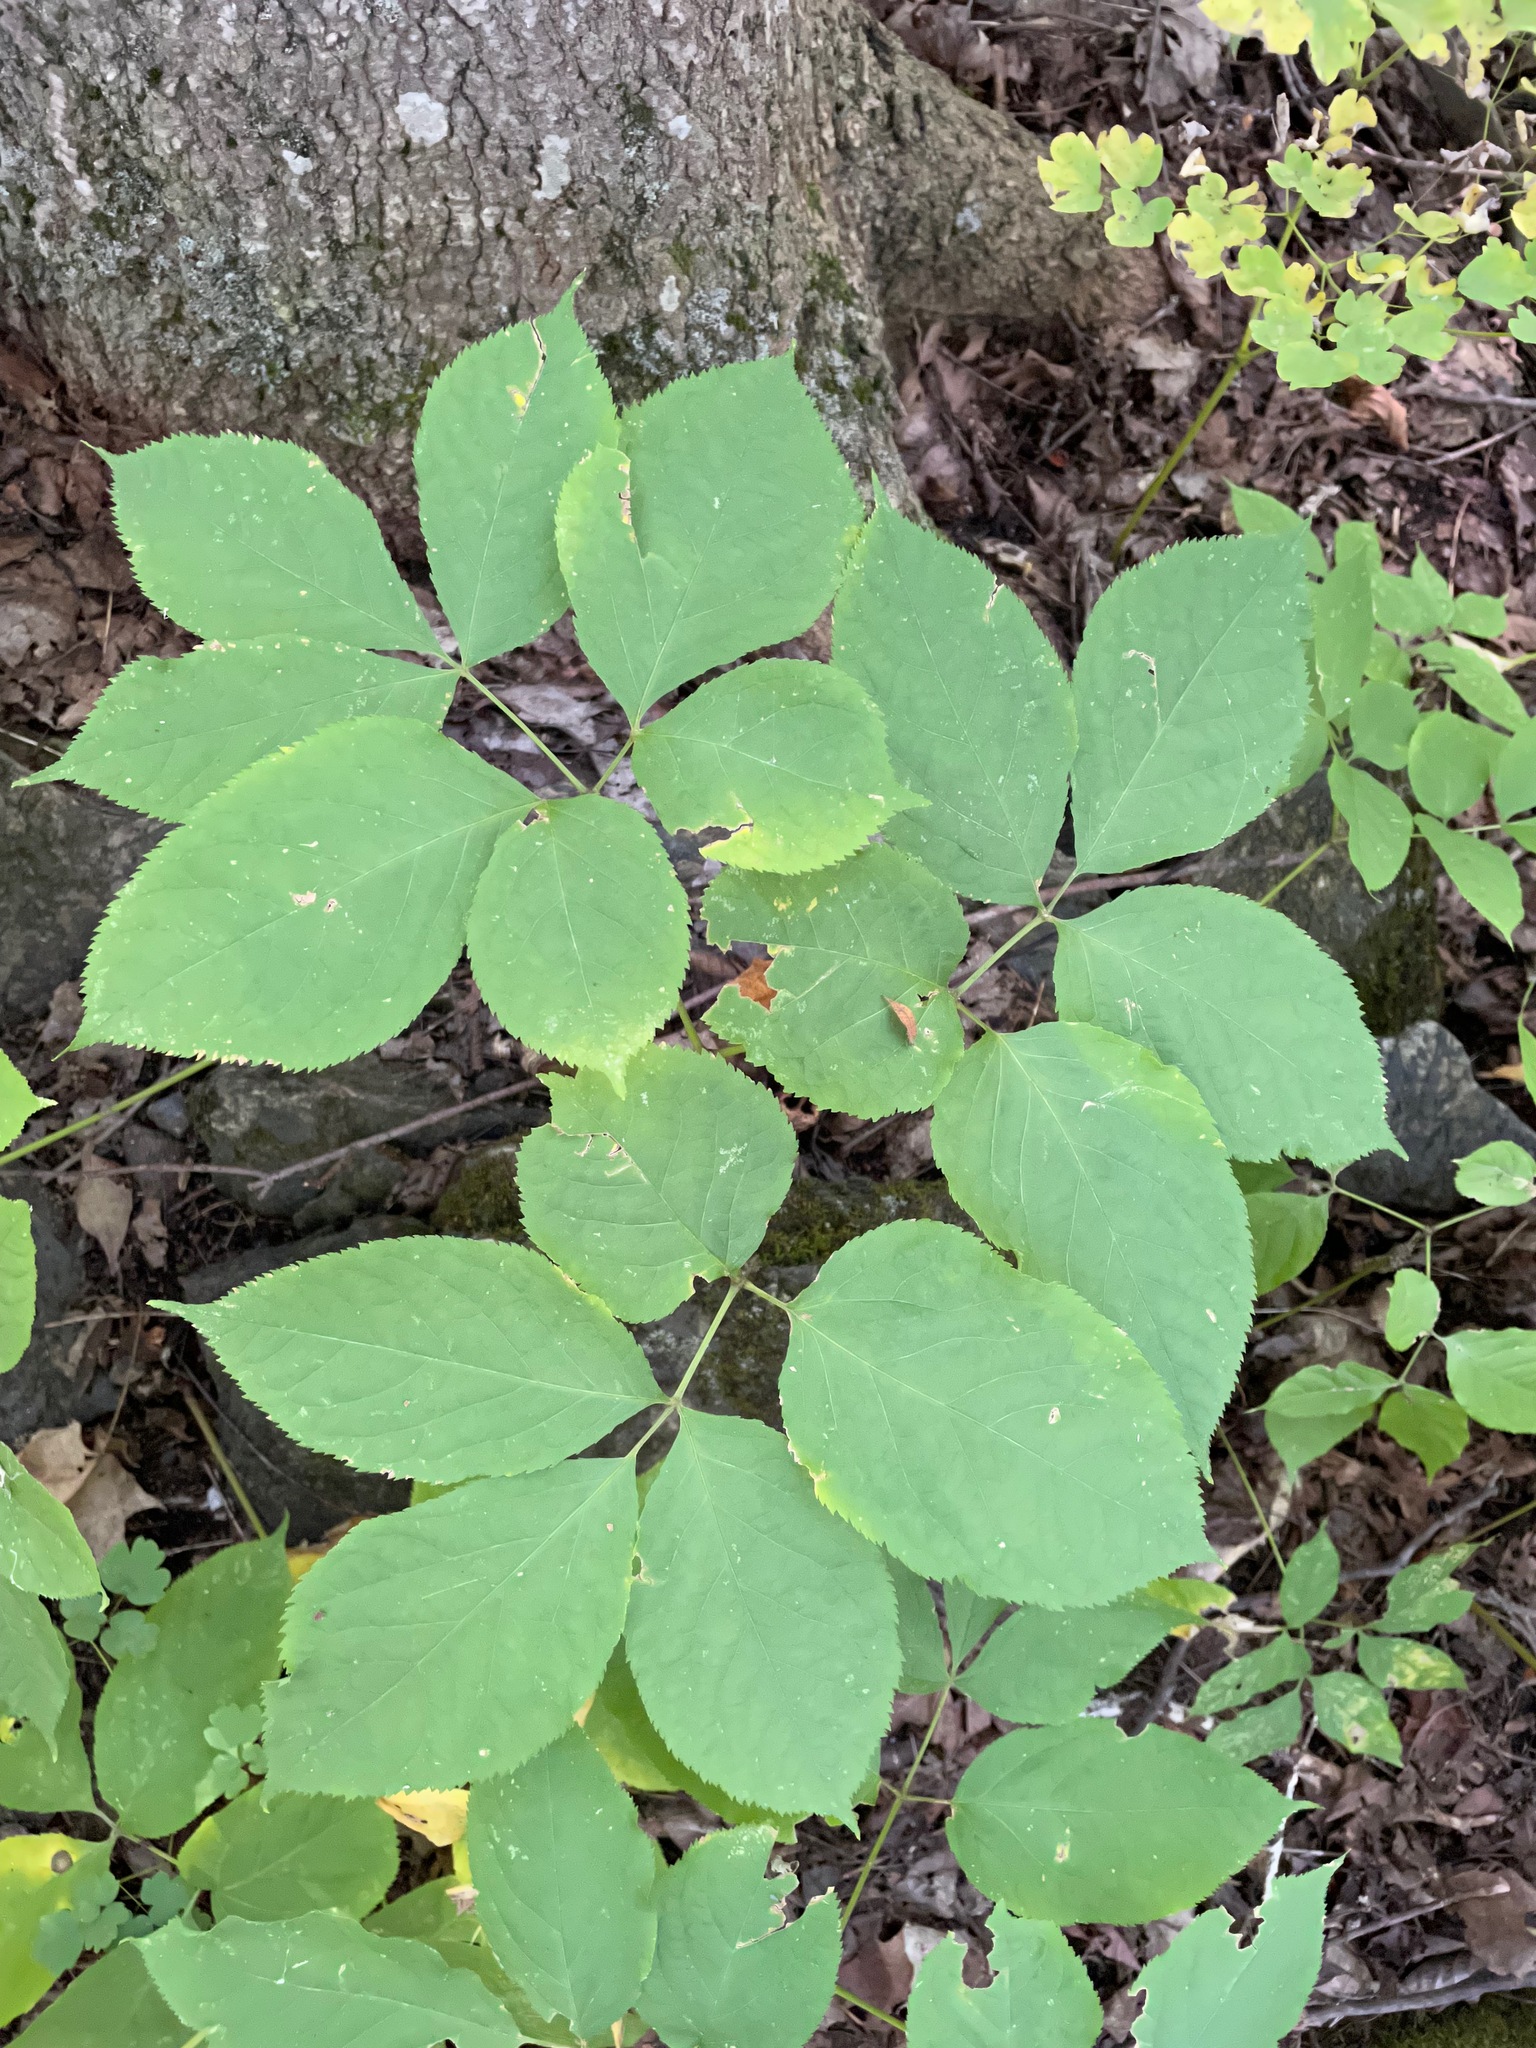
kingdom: Plantae
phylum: Tracheophyta
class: Magnoliopsida
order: Apiales
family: Araliaceae
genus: Aralia
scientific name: Aralia nudicaulis
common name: Wild sarsaparilla
